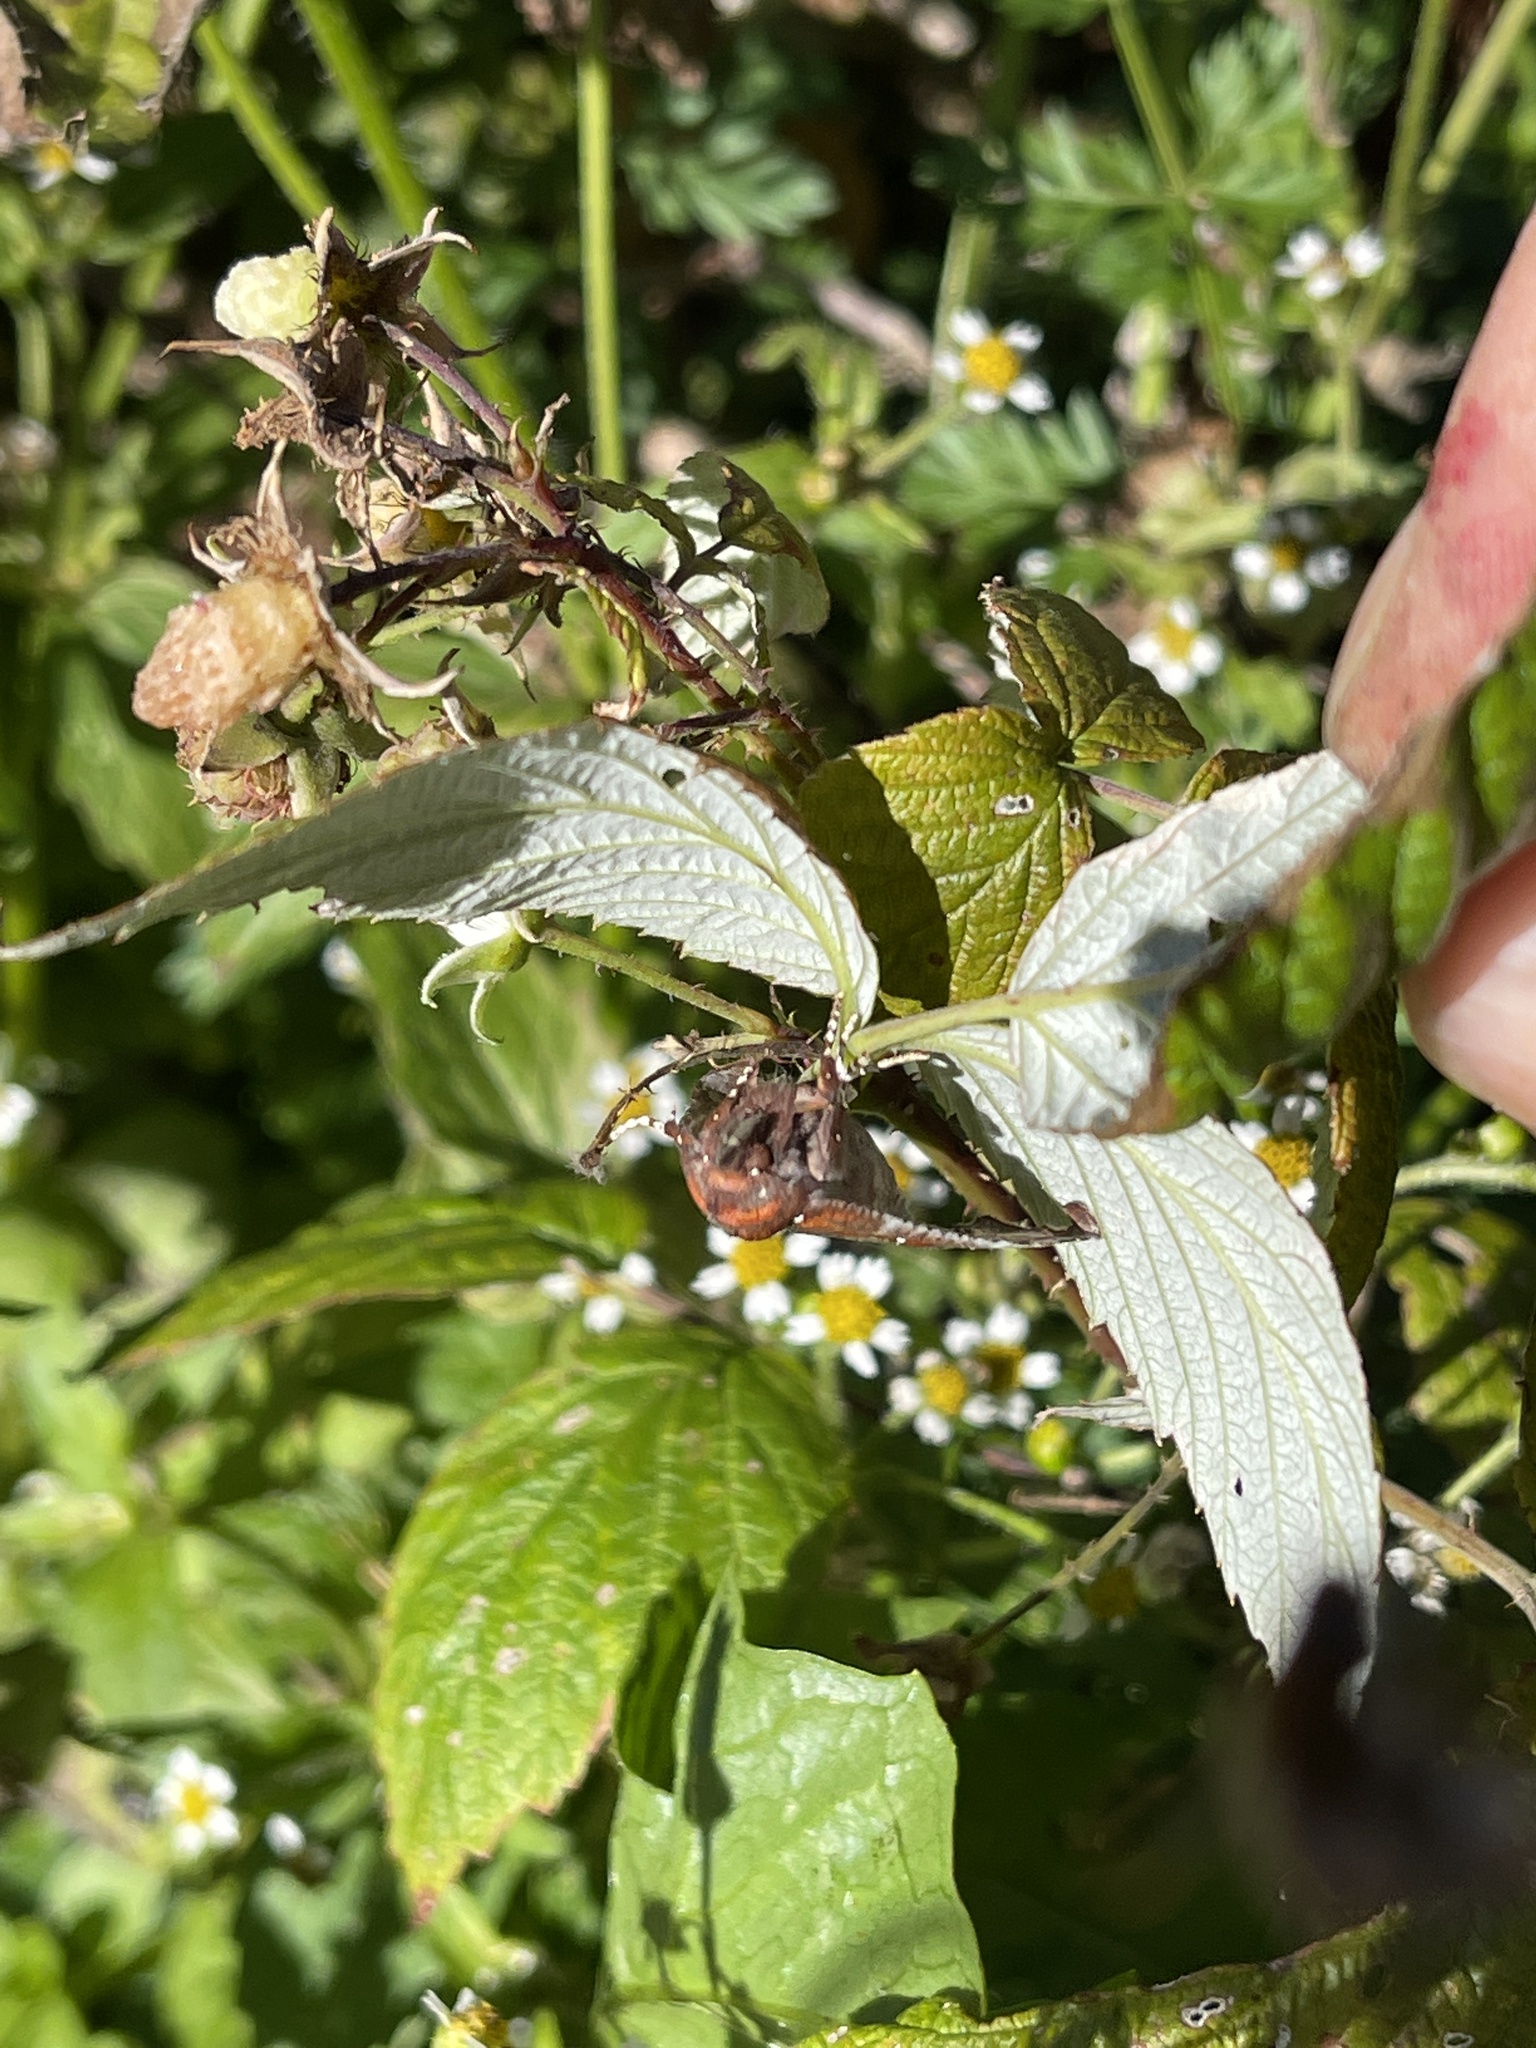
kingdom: Animalia
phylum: Arthropoda
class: Insecta
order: Lepidoptera
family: Erebidae
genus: Scoliopteryx
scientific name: Scoliopteryx libatrix
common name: Herald
